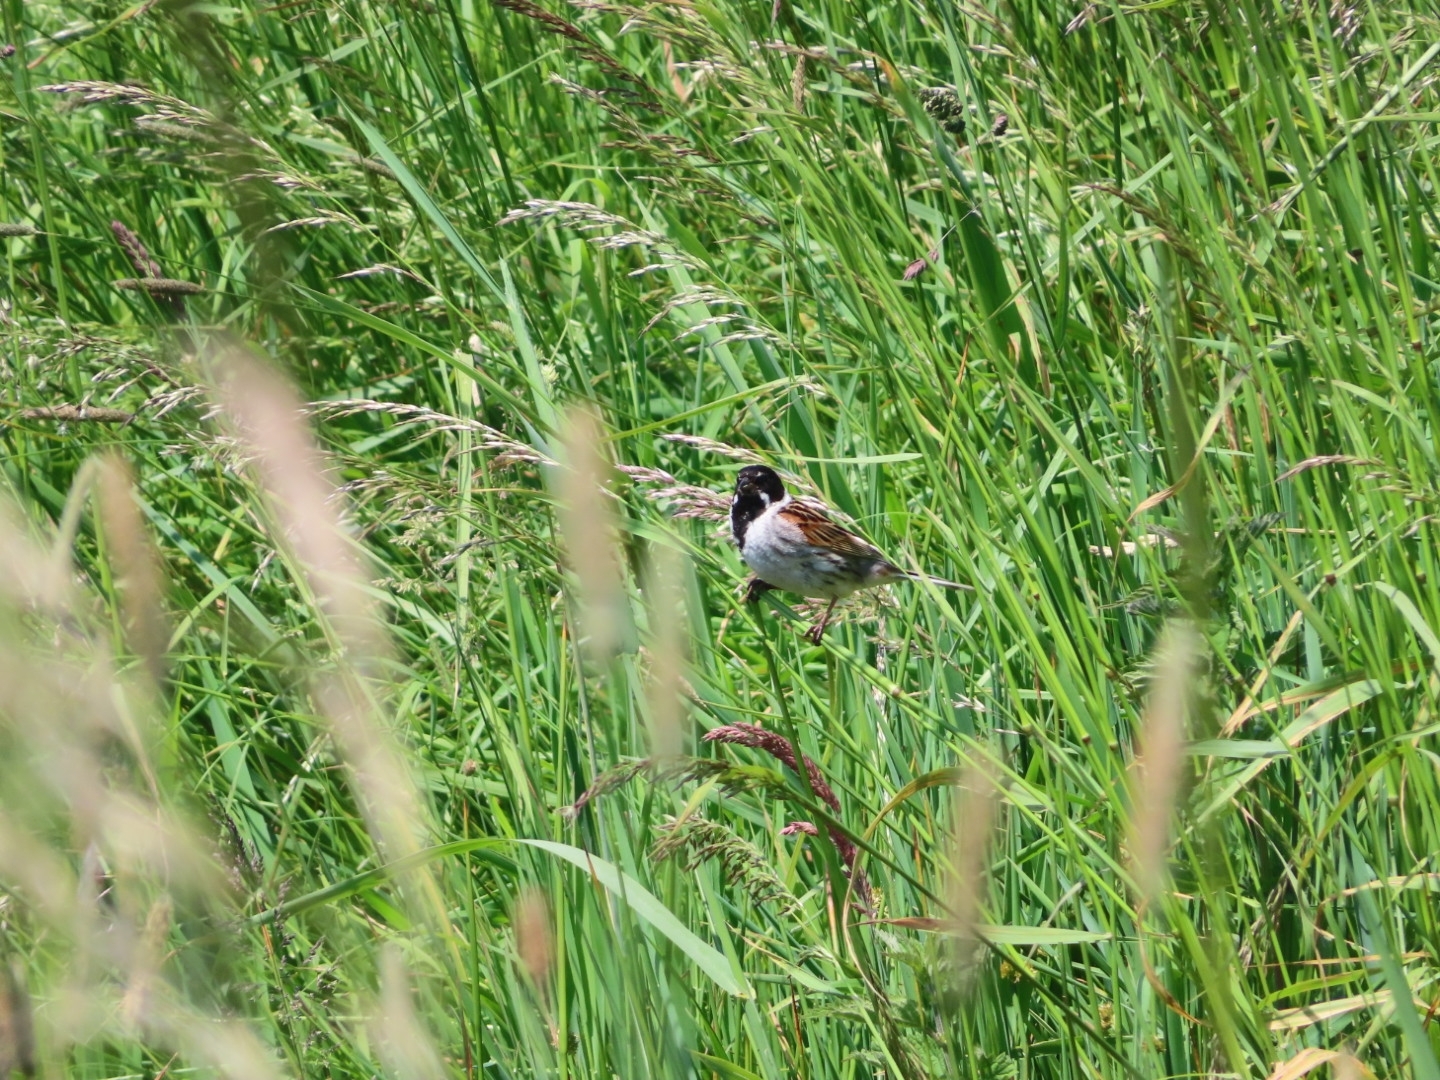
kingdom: Animalia
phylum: Chordata
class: Aves
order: Passeriformes
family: Emberizidae
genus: Emberiza
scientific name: Emberiza schoeniclus
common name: Reed bunting
